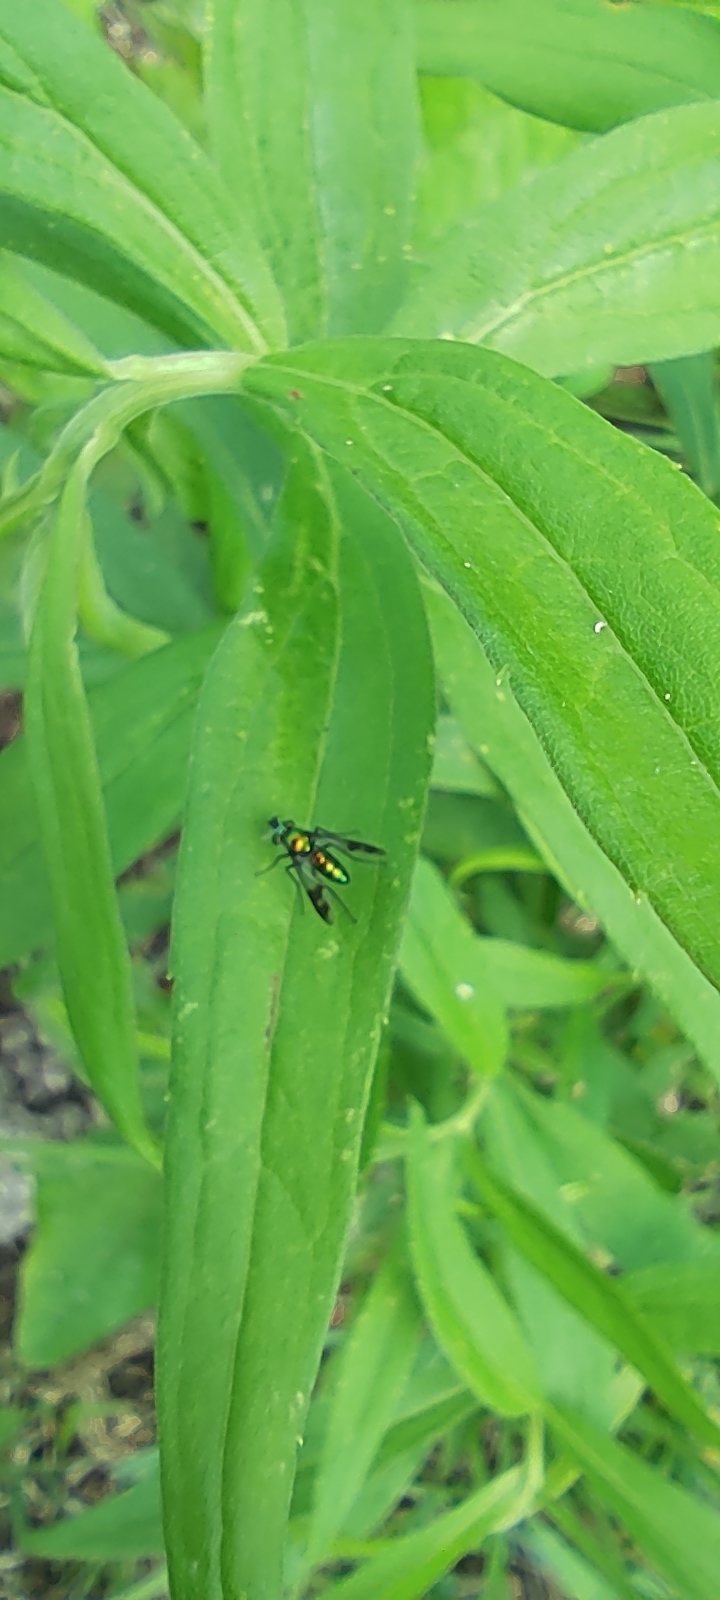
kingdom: Animalia
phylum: Arthropoda
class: Insecta
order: Diptera
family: Dolichopodidae
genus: Condylostylus
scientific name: Condylostylus patibulatus
